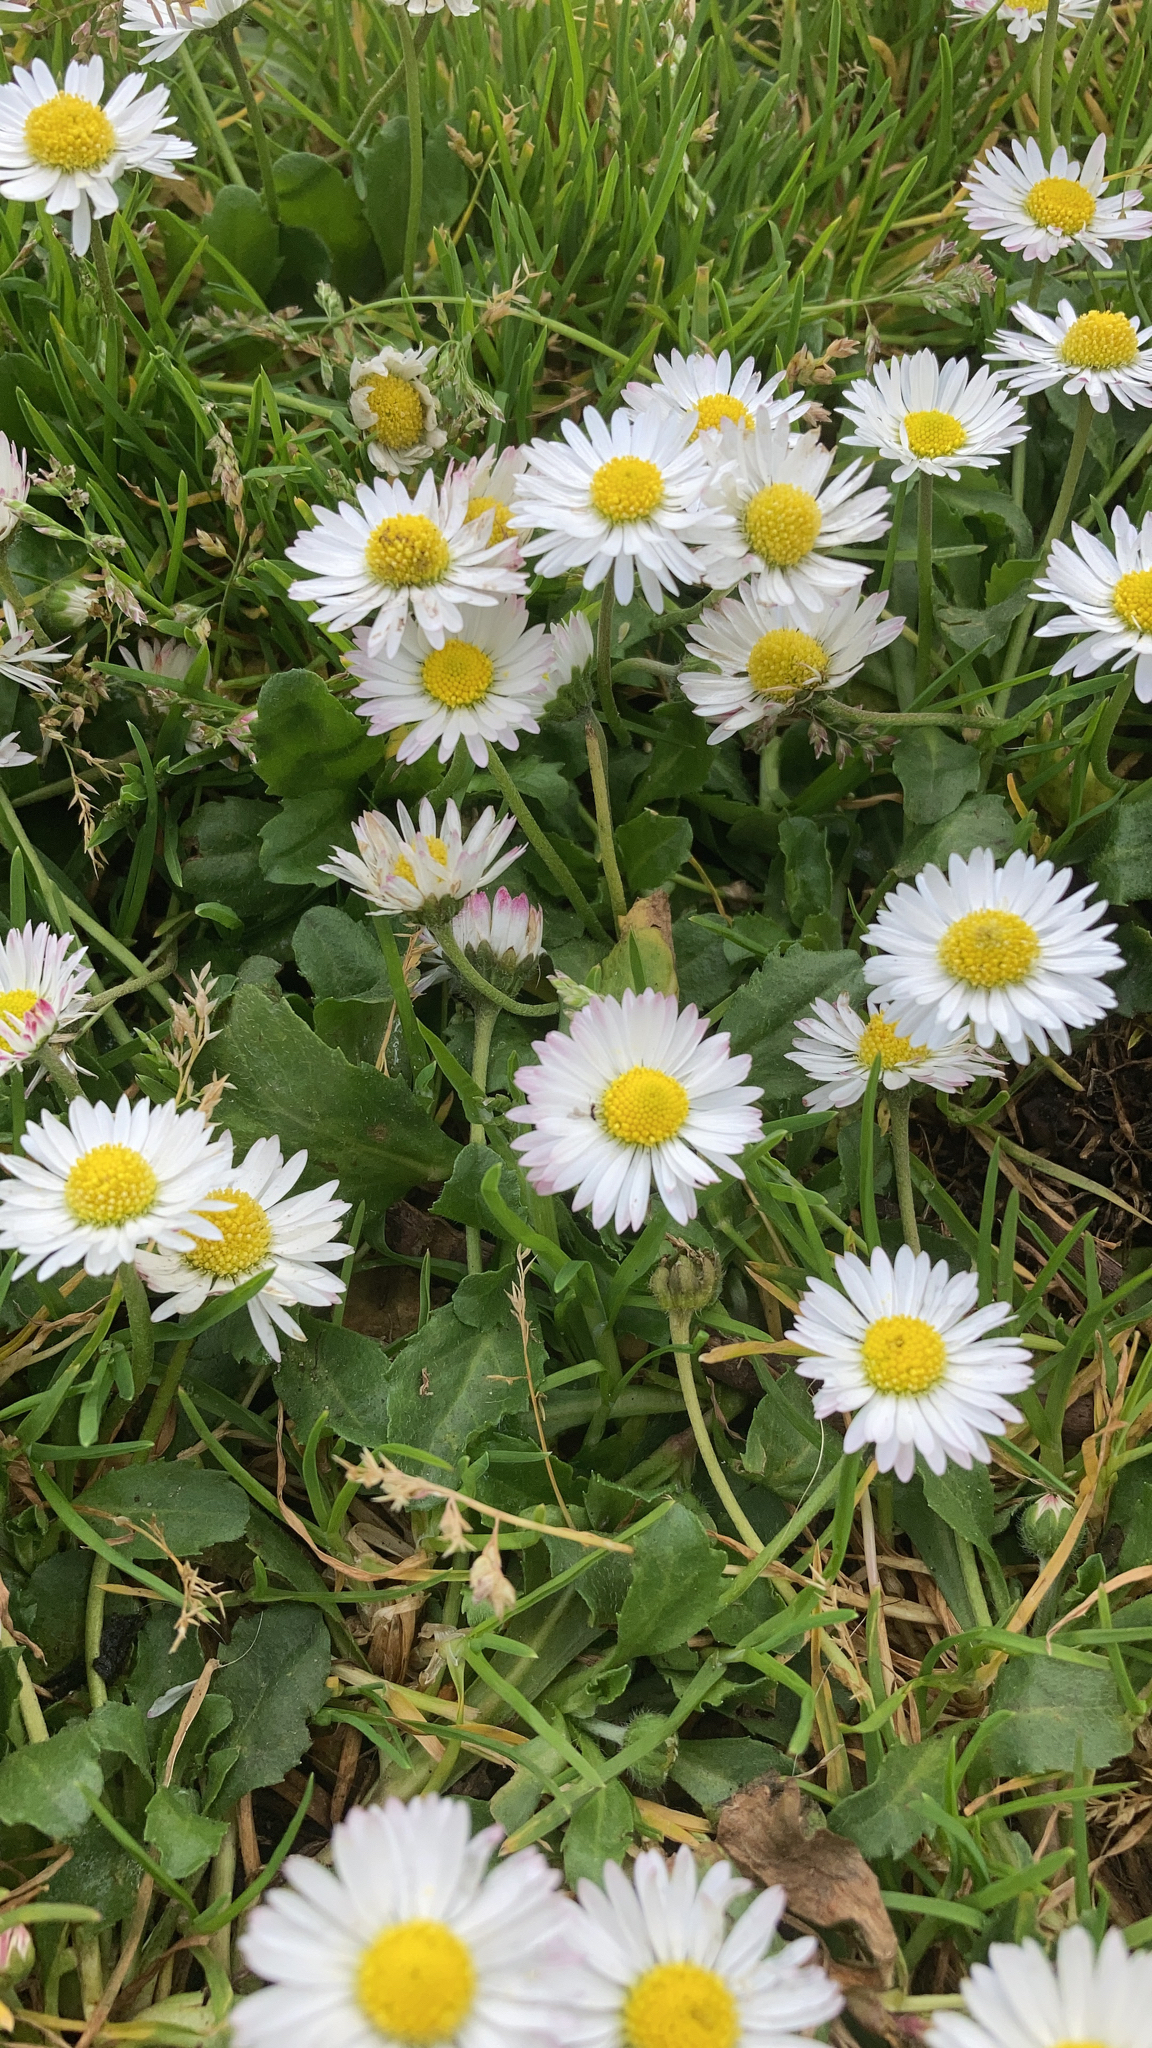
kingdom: Plantae
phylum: Tracheophyta
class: Magnoliopsida
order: Asterales
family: Asteraceae
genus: Bellis
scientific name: Bellis perennis
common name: Lawndaisy
